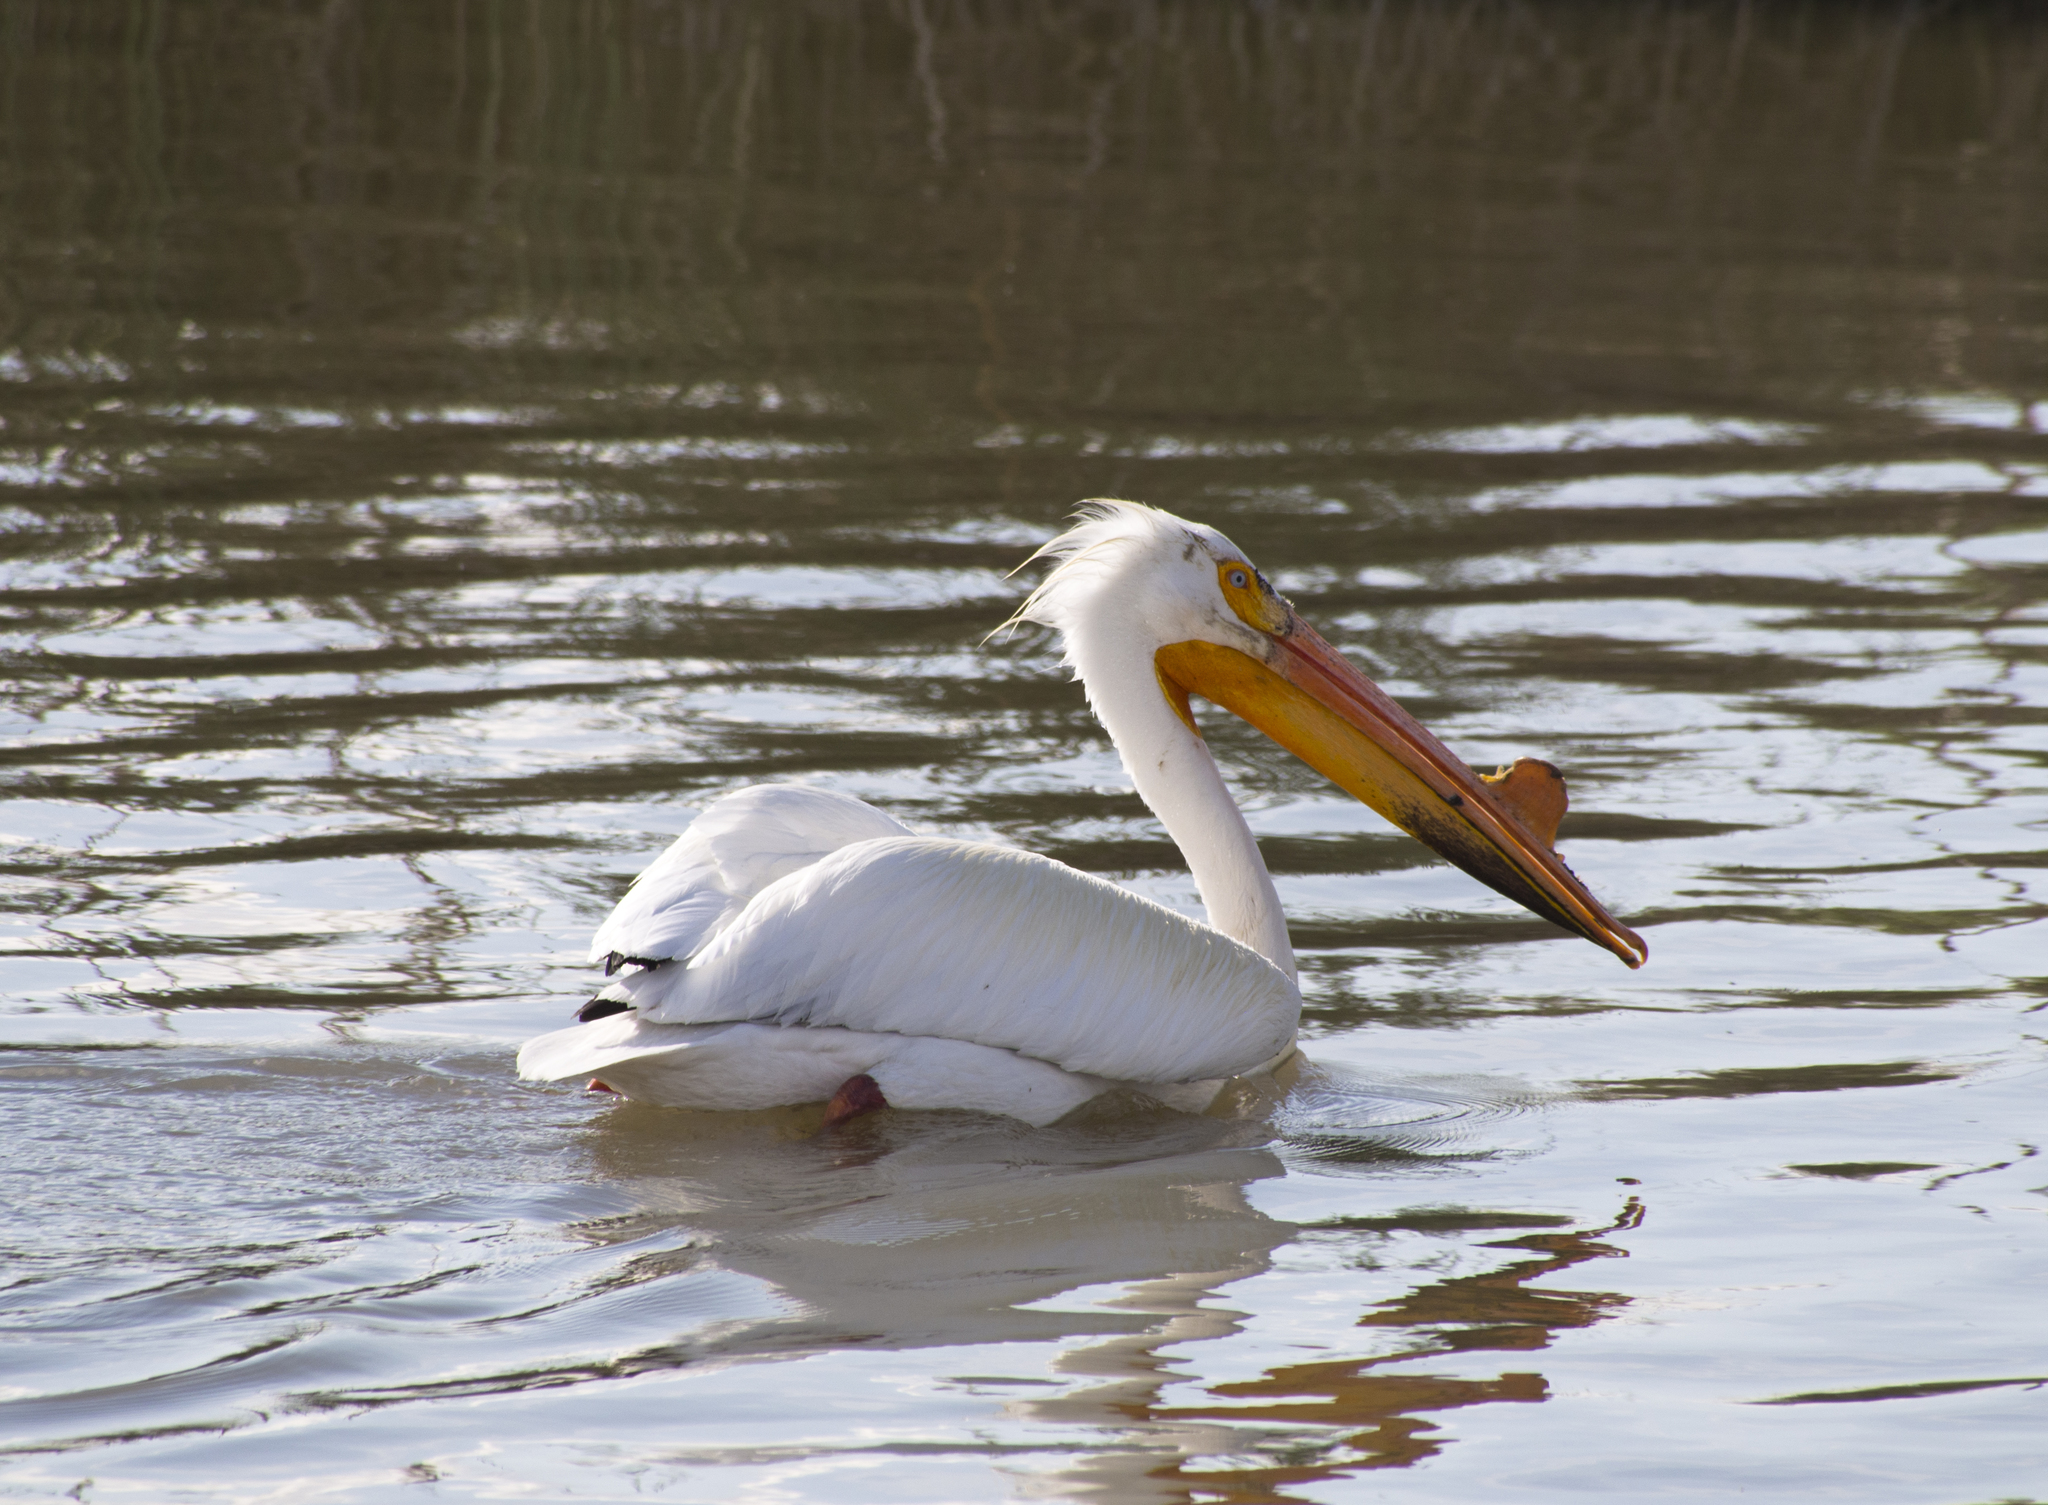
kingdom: Animalia
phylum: Chordata
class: Aves
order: Pelecaniformes
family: Pelecanidae
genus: Pelecanus
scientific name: Pelecanus erythrorhynchos
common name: American white pelican
